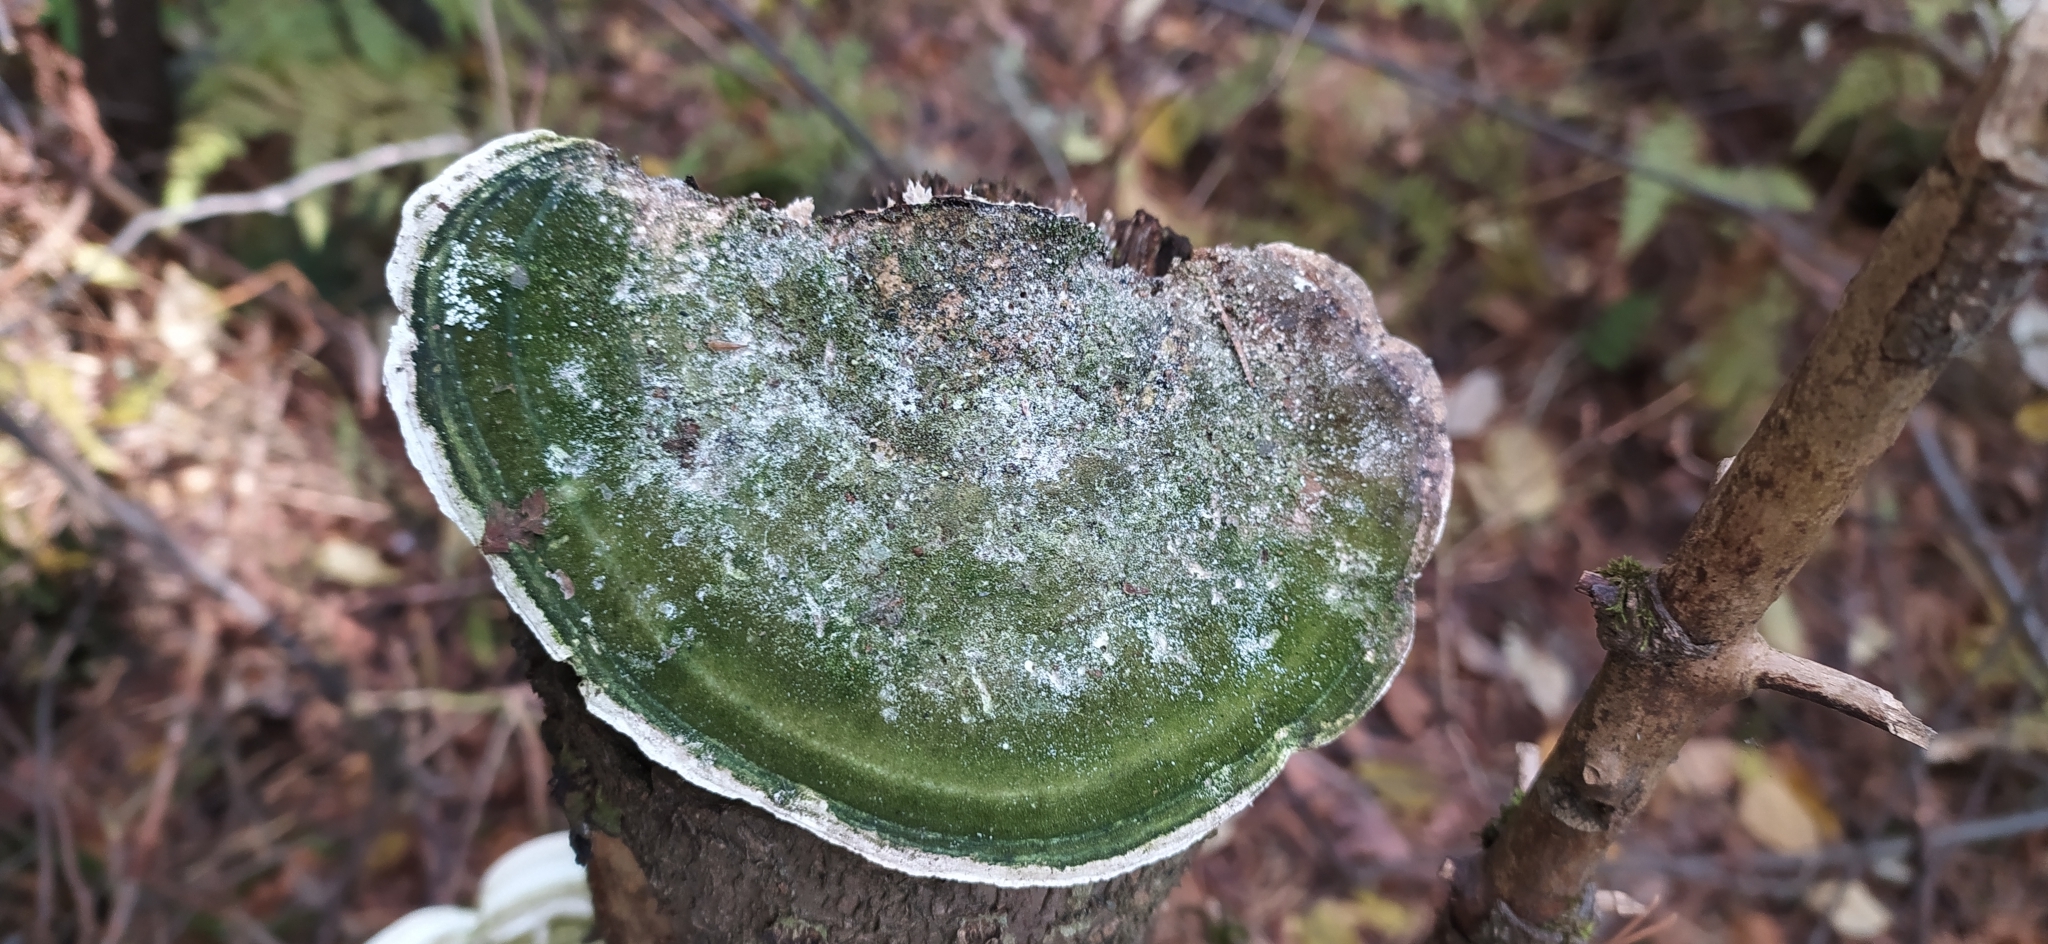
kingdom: Fungi
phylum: Basidiomycota
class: Agaricomycetes
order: Polyporales
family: Polyporaceae
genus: Trametes
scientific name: Trametes gibbosa
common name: Lumpy bracket
